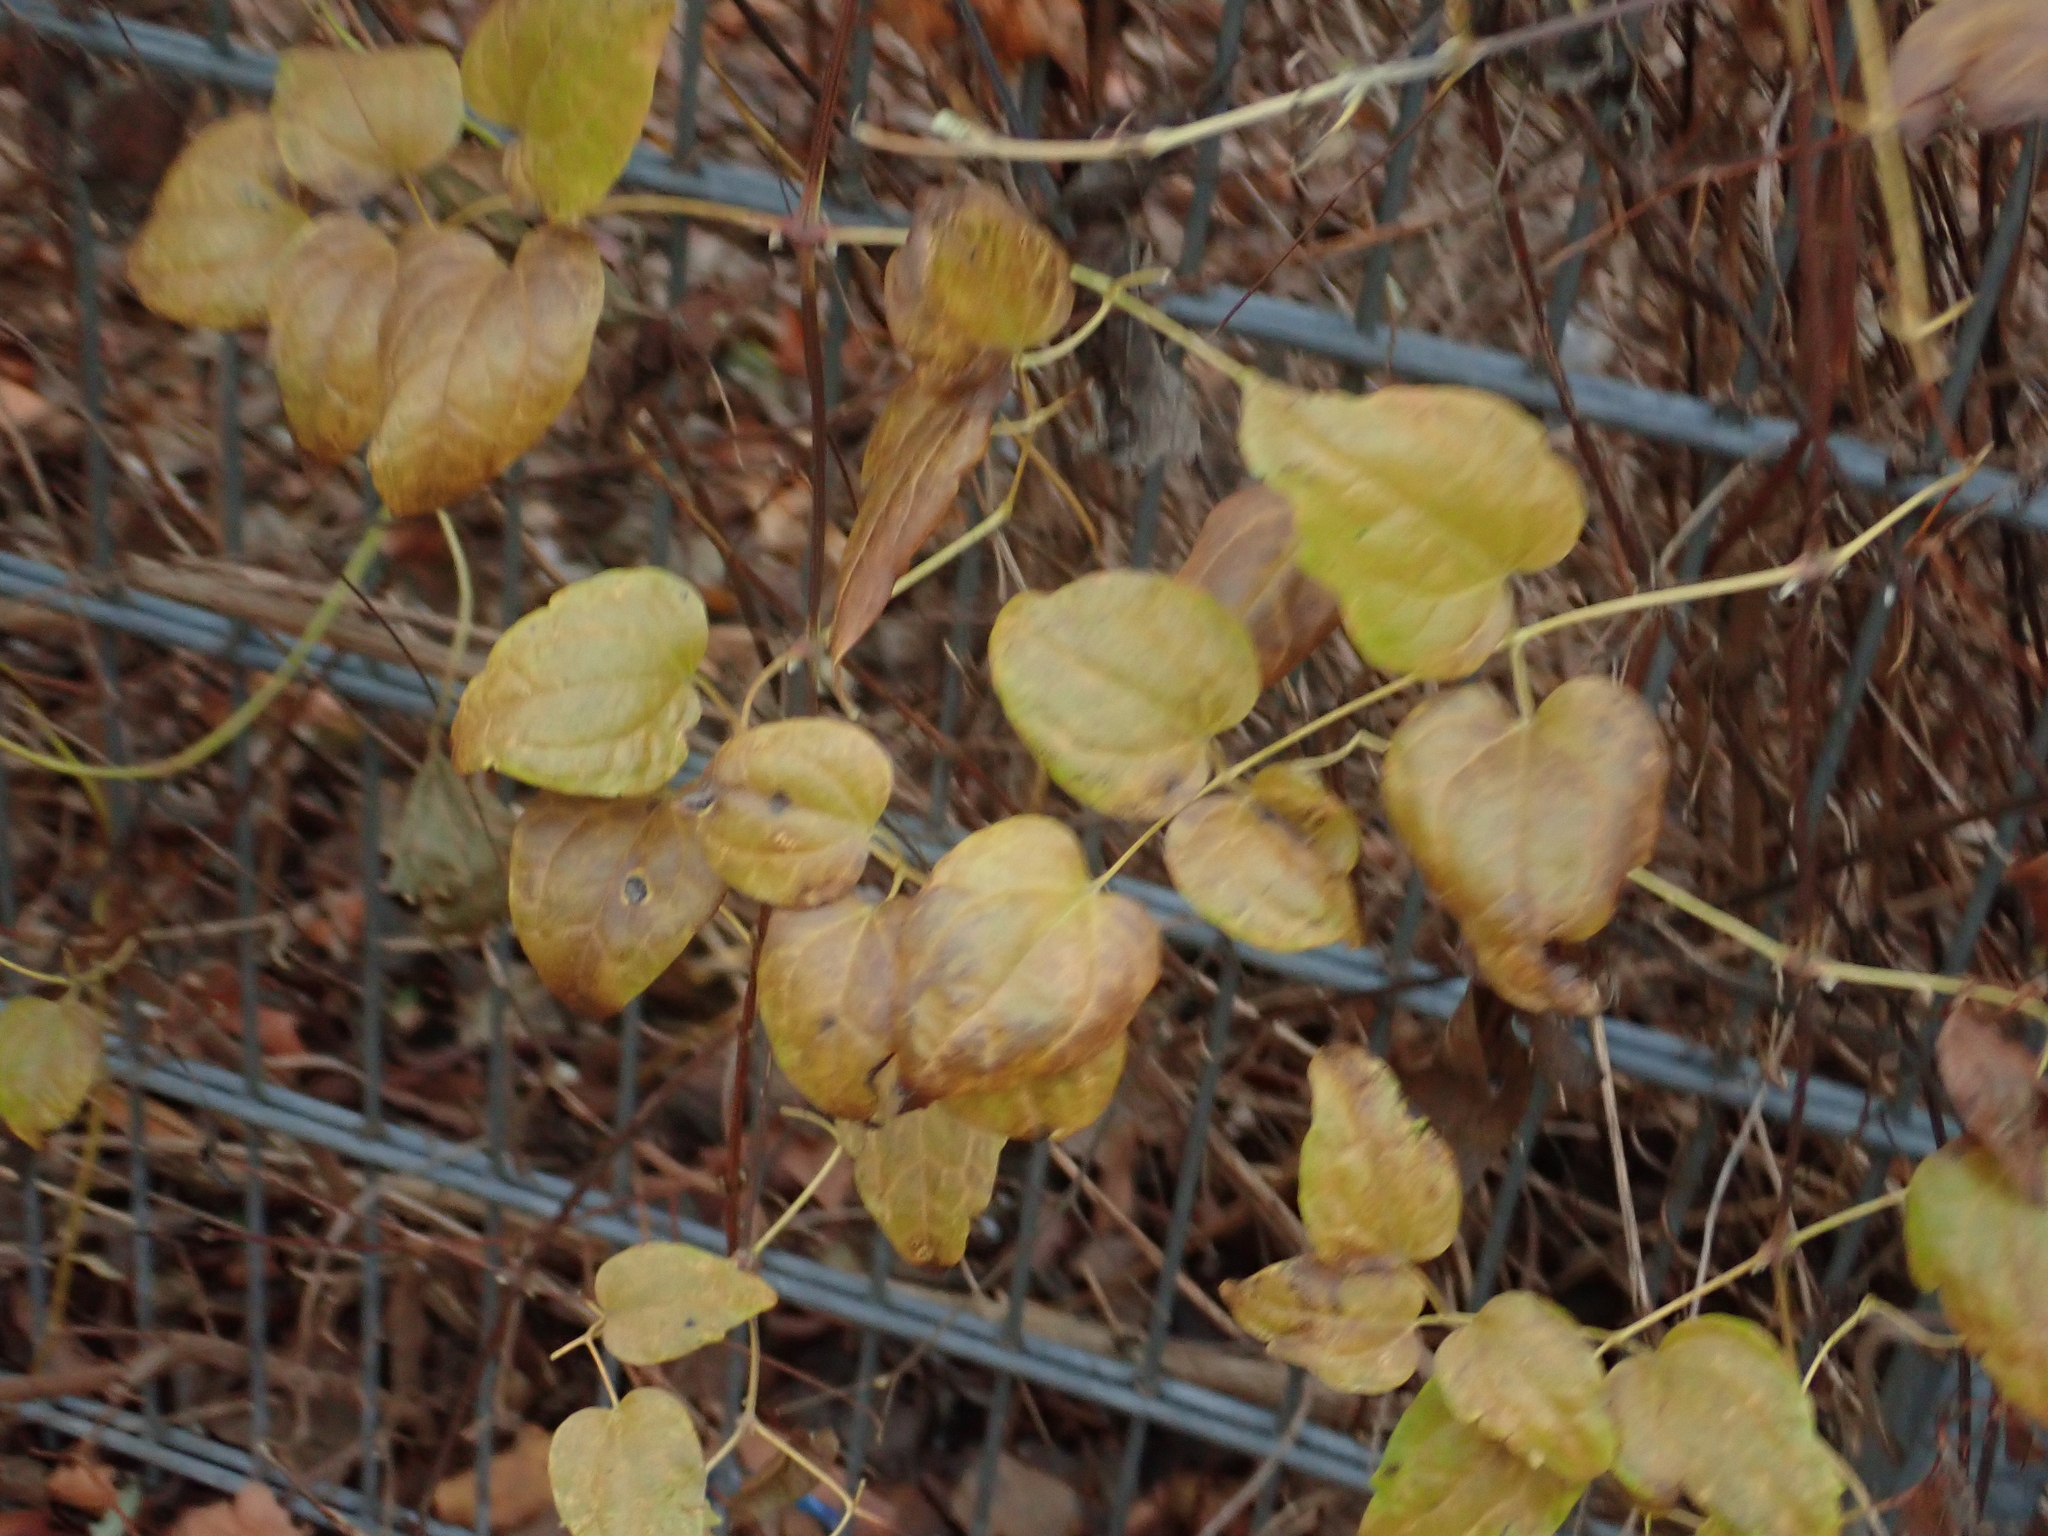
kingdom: Plantae
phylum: Tracheophyta
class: Magnoliopsida
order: Ranunculales
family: Ranunculaceae
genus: Clematis
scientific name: Clematis vitalba
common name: Evergreen clematis
